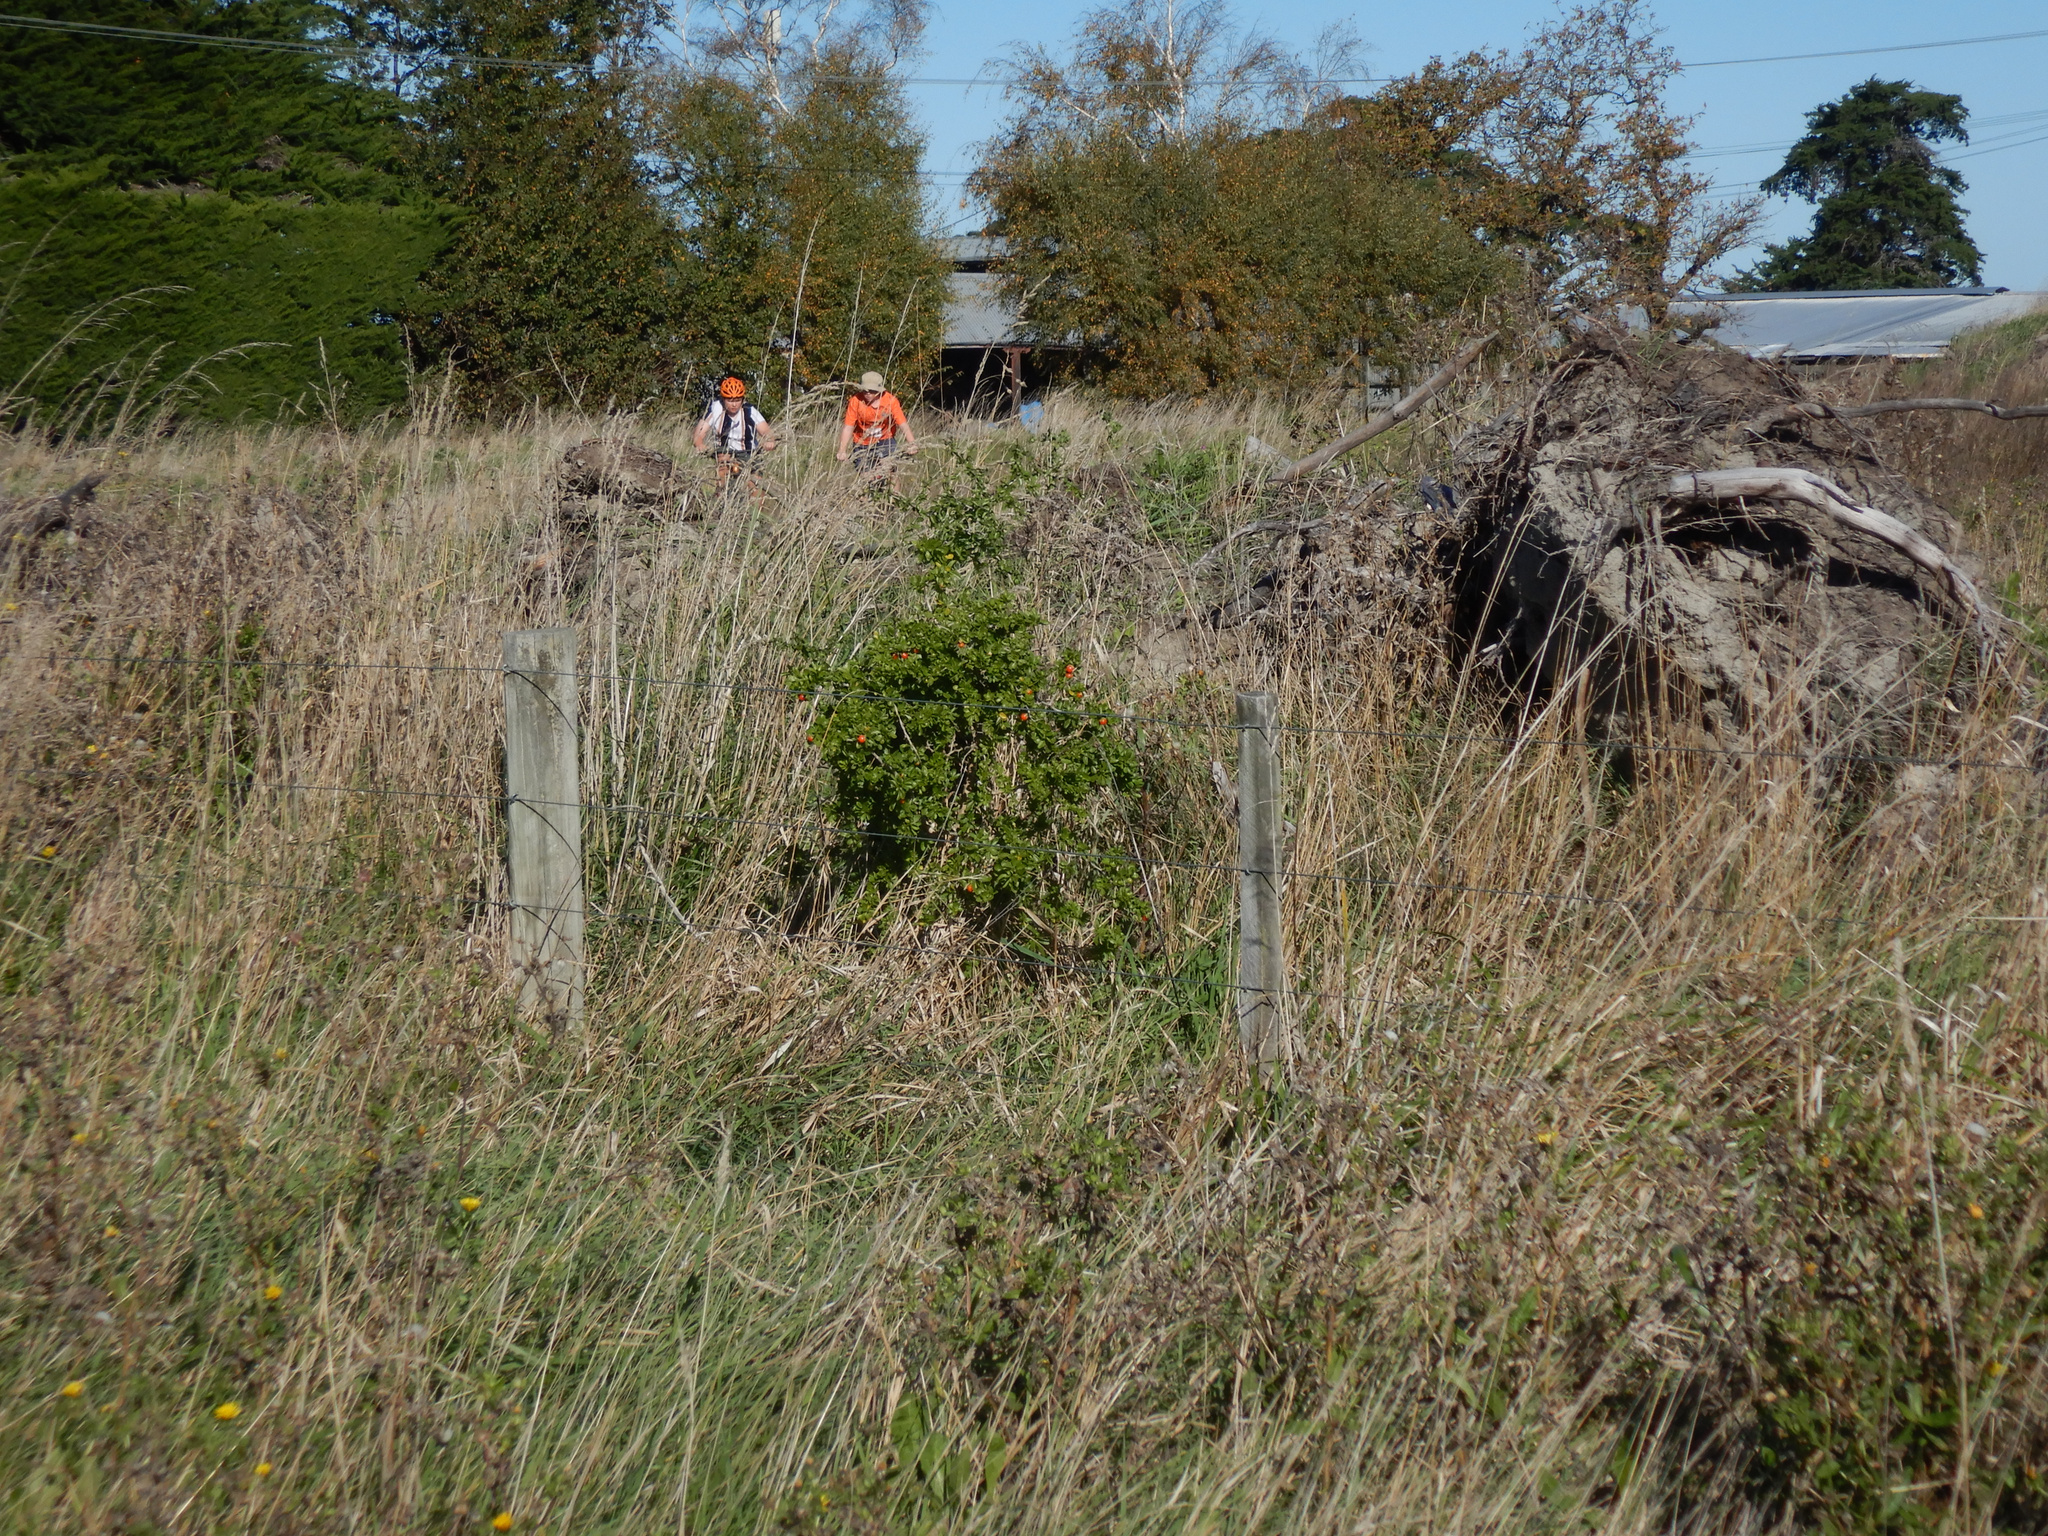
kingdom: Plantae
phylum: Tracheophyta
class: Magnoliopsida
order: Solanales
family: Solanaceae
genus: Lycium
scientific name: Lycium ferocissimum
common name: African boxthorn
